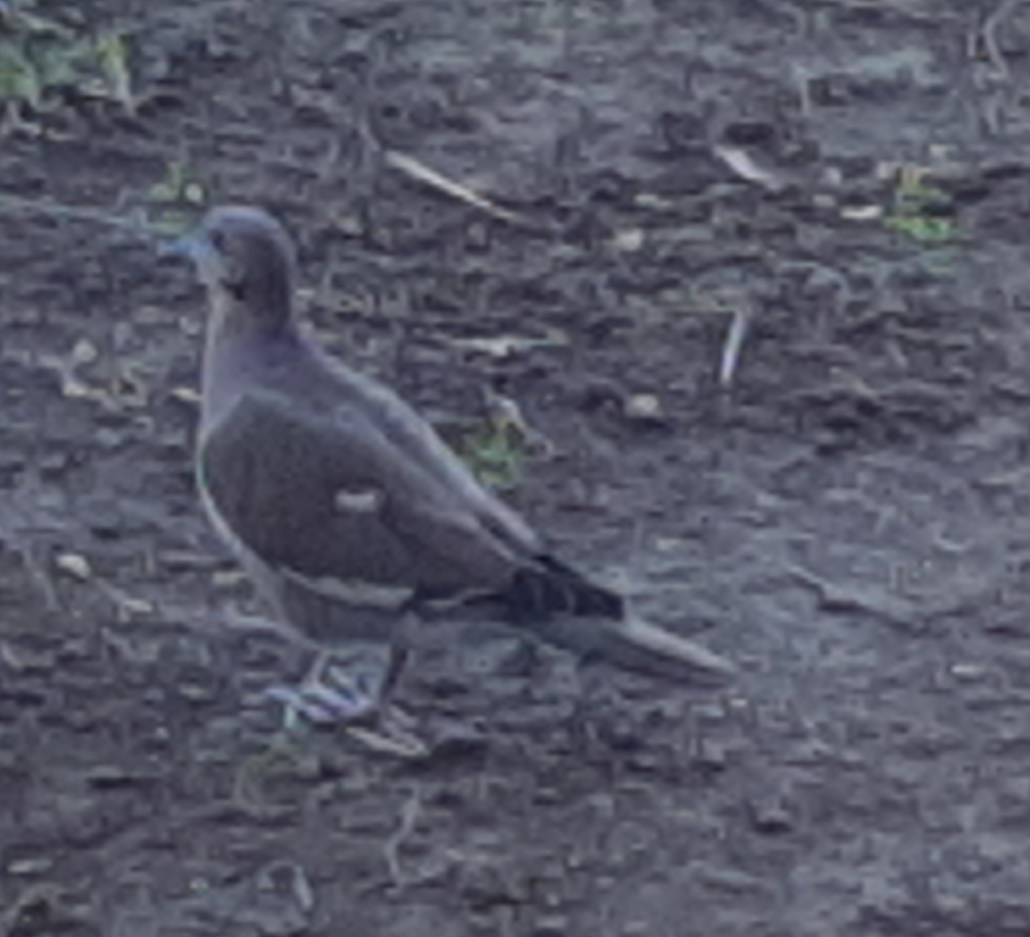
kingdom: Animalia
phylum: Chordata
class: Aves
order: Columbiformes
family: Columbidae
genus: Zenaida
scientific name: Zenaida asiatica
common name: White-winged dove
